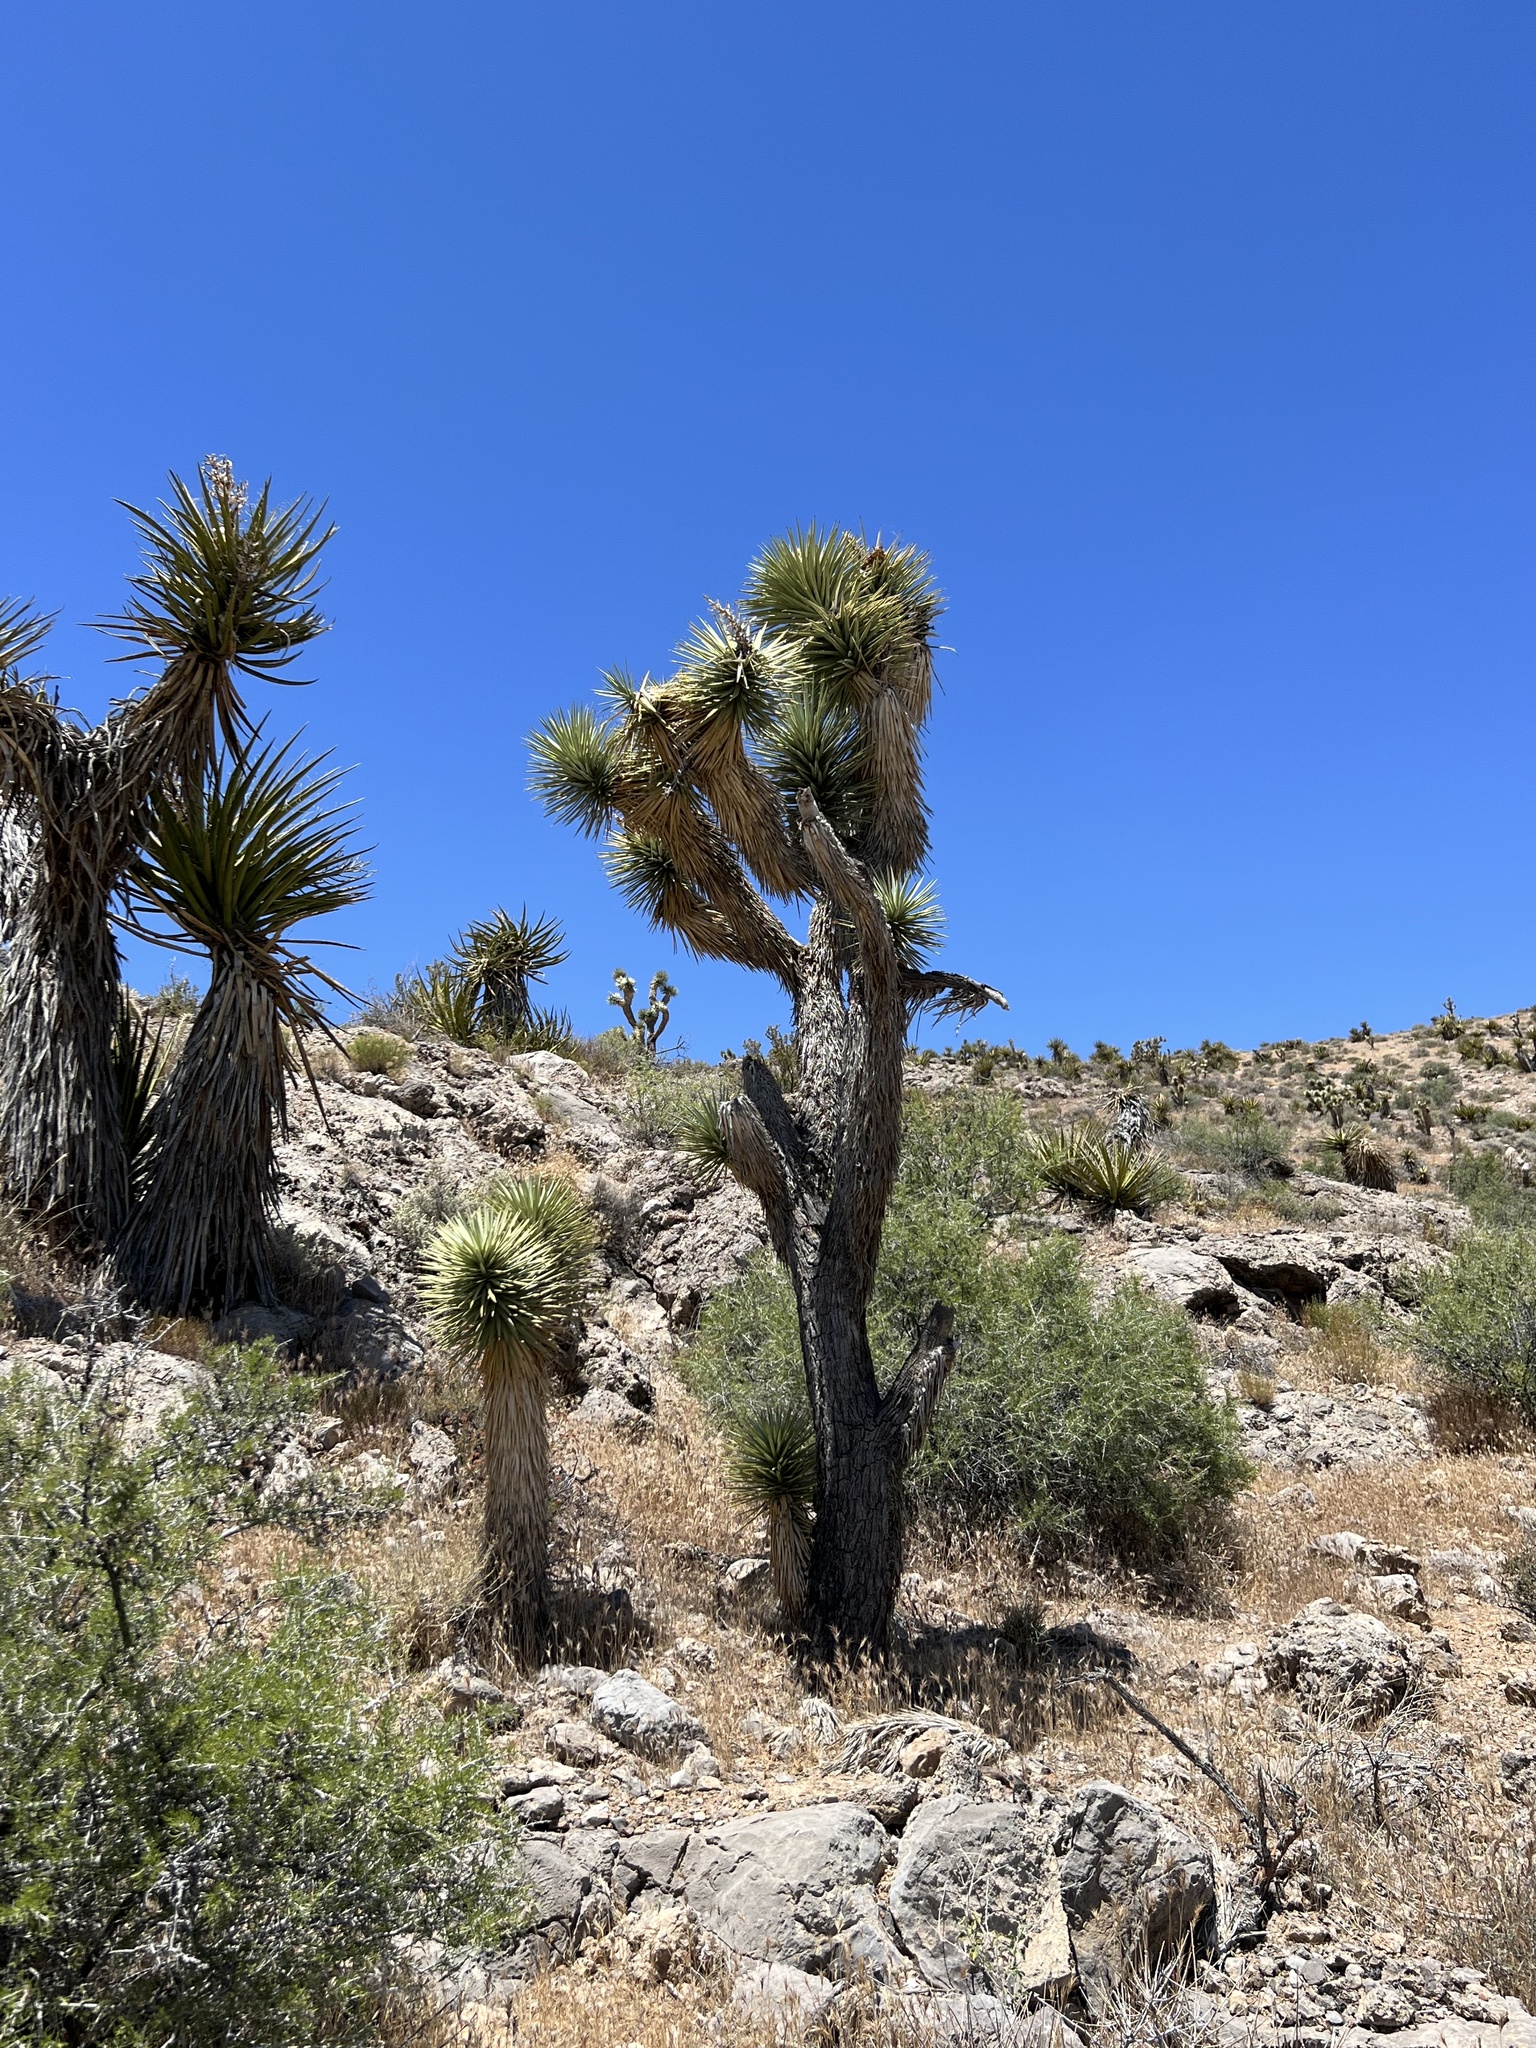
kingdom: Plantae
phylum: Tracheophyta
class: Liliopsida
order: Asparagales
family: Asparagaceae
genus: Yucca
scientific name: Yucca brevifolia
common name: Joshua tree
